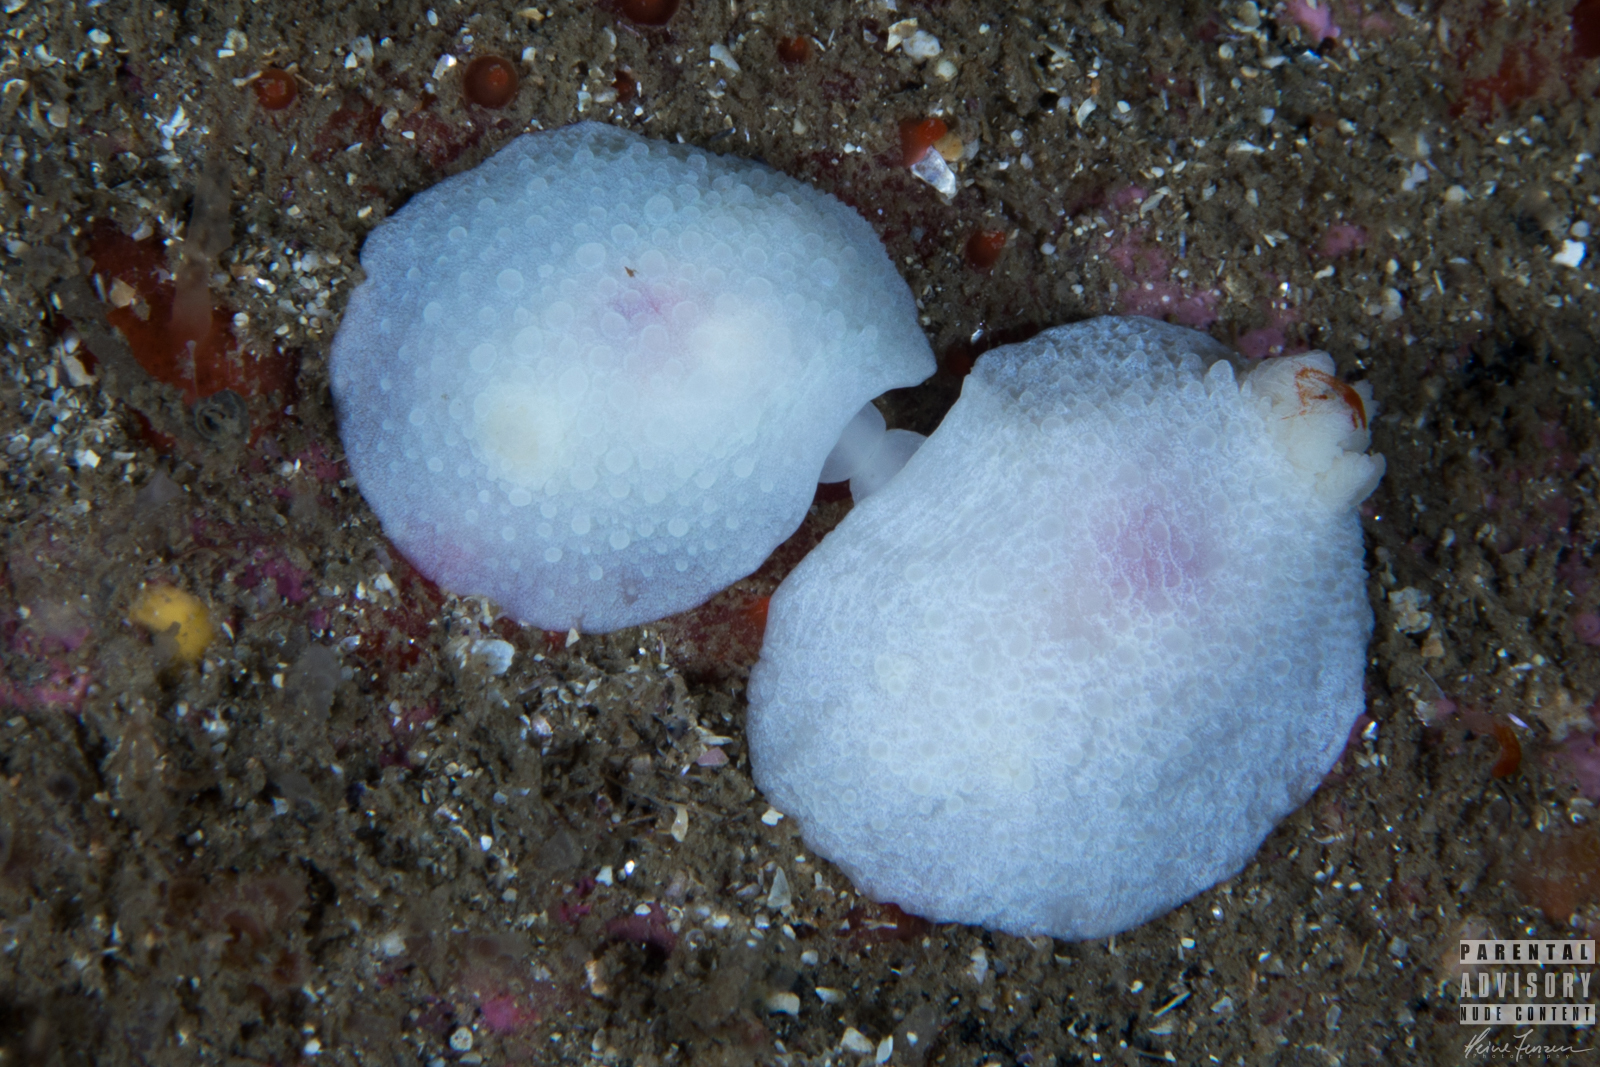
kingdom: Animalia
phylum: Mollusca
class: Gastropoda
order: Nudibranchia
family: Cadlinidae
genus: Aldisa
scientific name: Aldisa zetlandica
